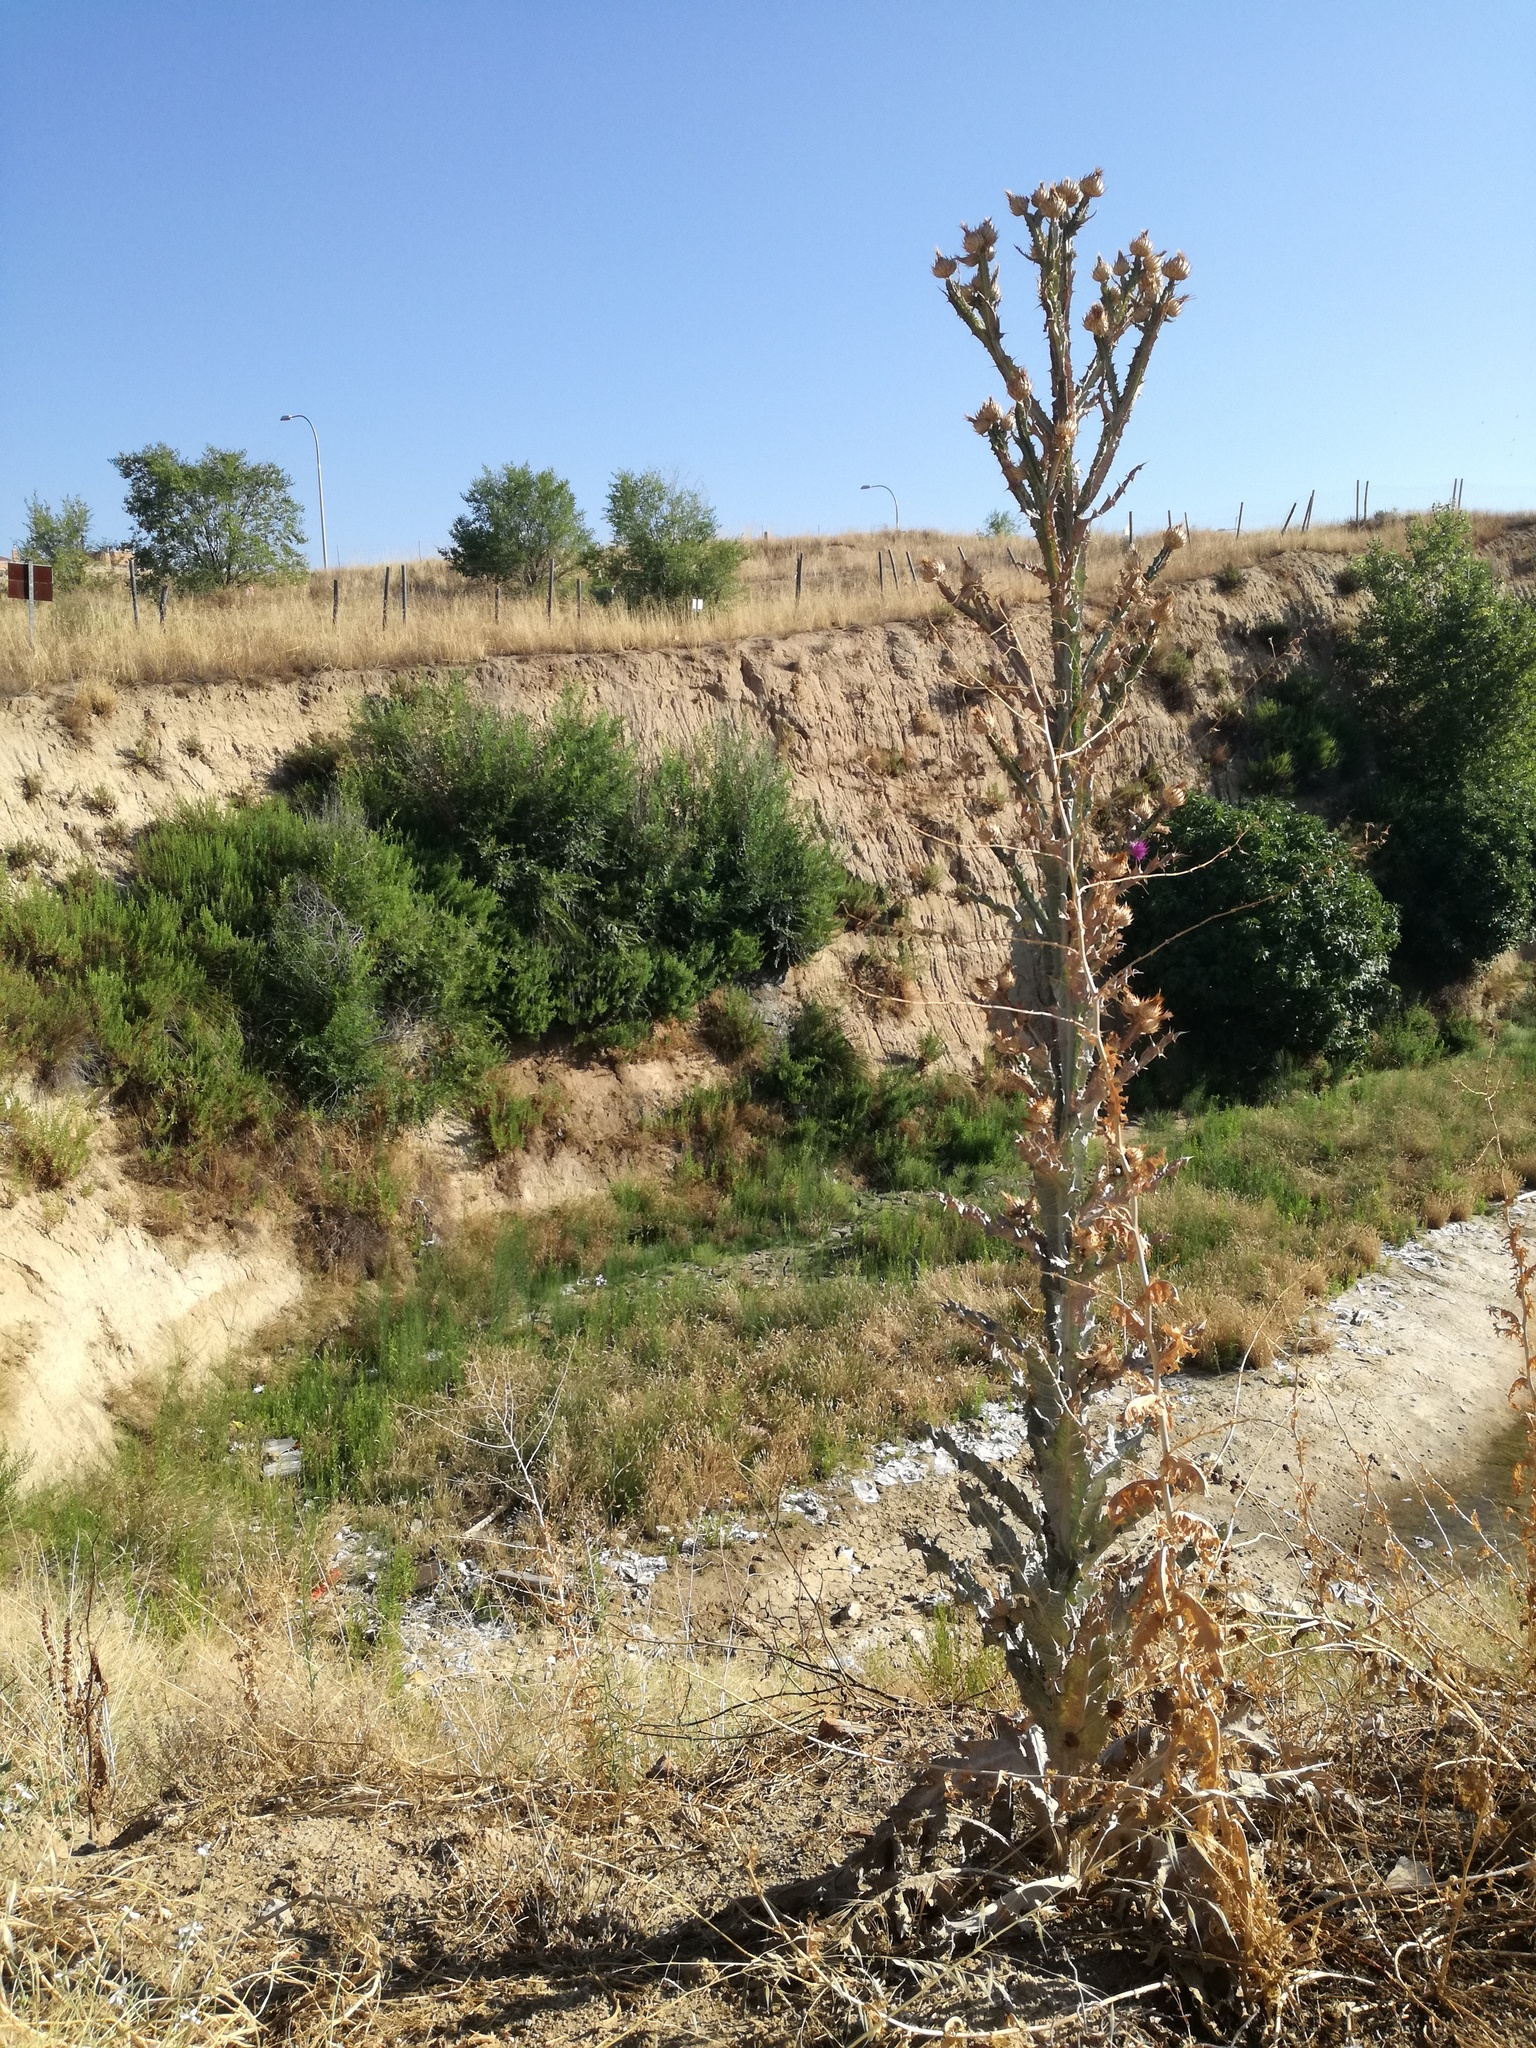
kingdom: Plantae
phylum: Tracheophyta
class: Magnoliopsida
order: Asterales
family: Asteraceae
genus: Onopordum
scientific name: Onopordum nervosum
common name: Reticulate thistle
